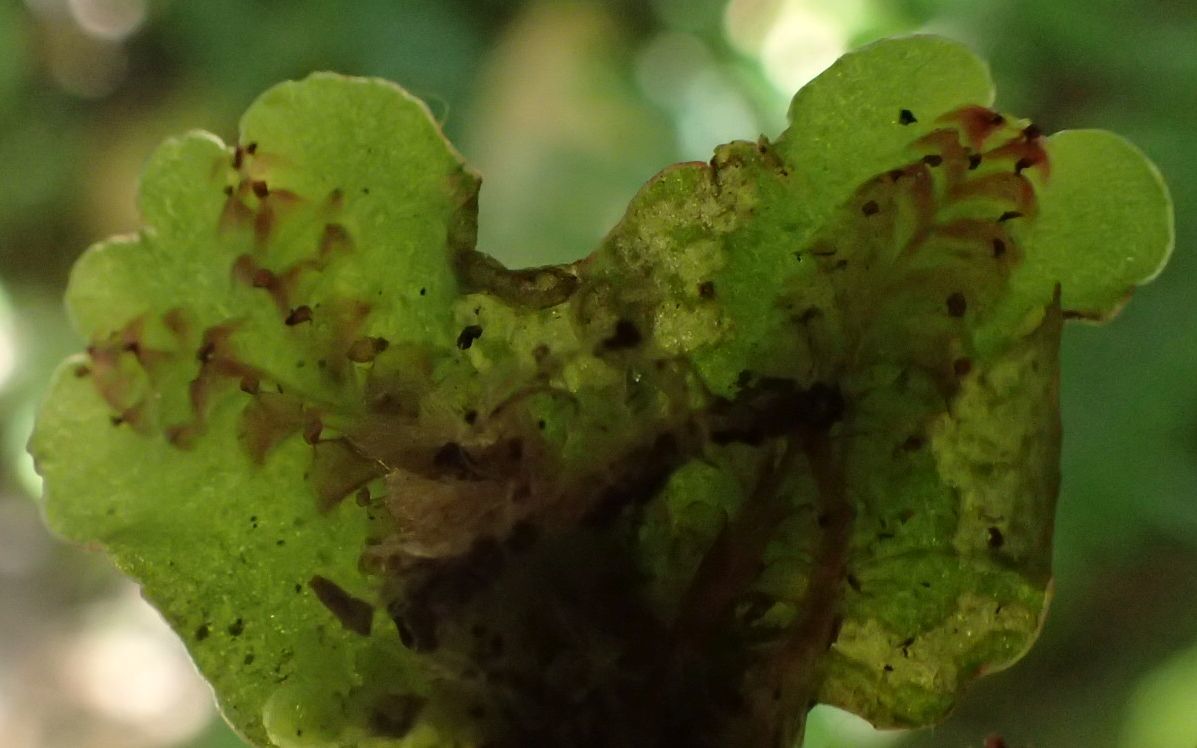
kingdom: Plantae
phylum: Marchantiophyta
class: Marchantiopsida
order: Marchantiales
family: Marchantiaceae
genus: Marchantia
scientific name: Marchantia foliacea
